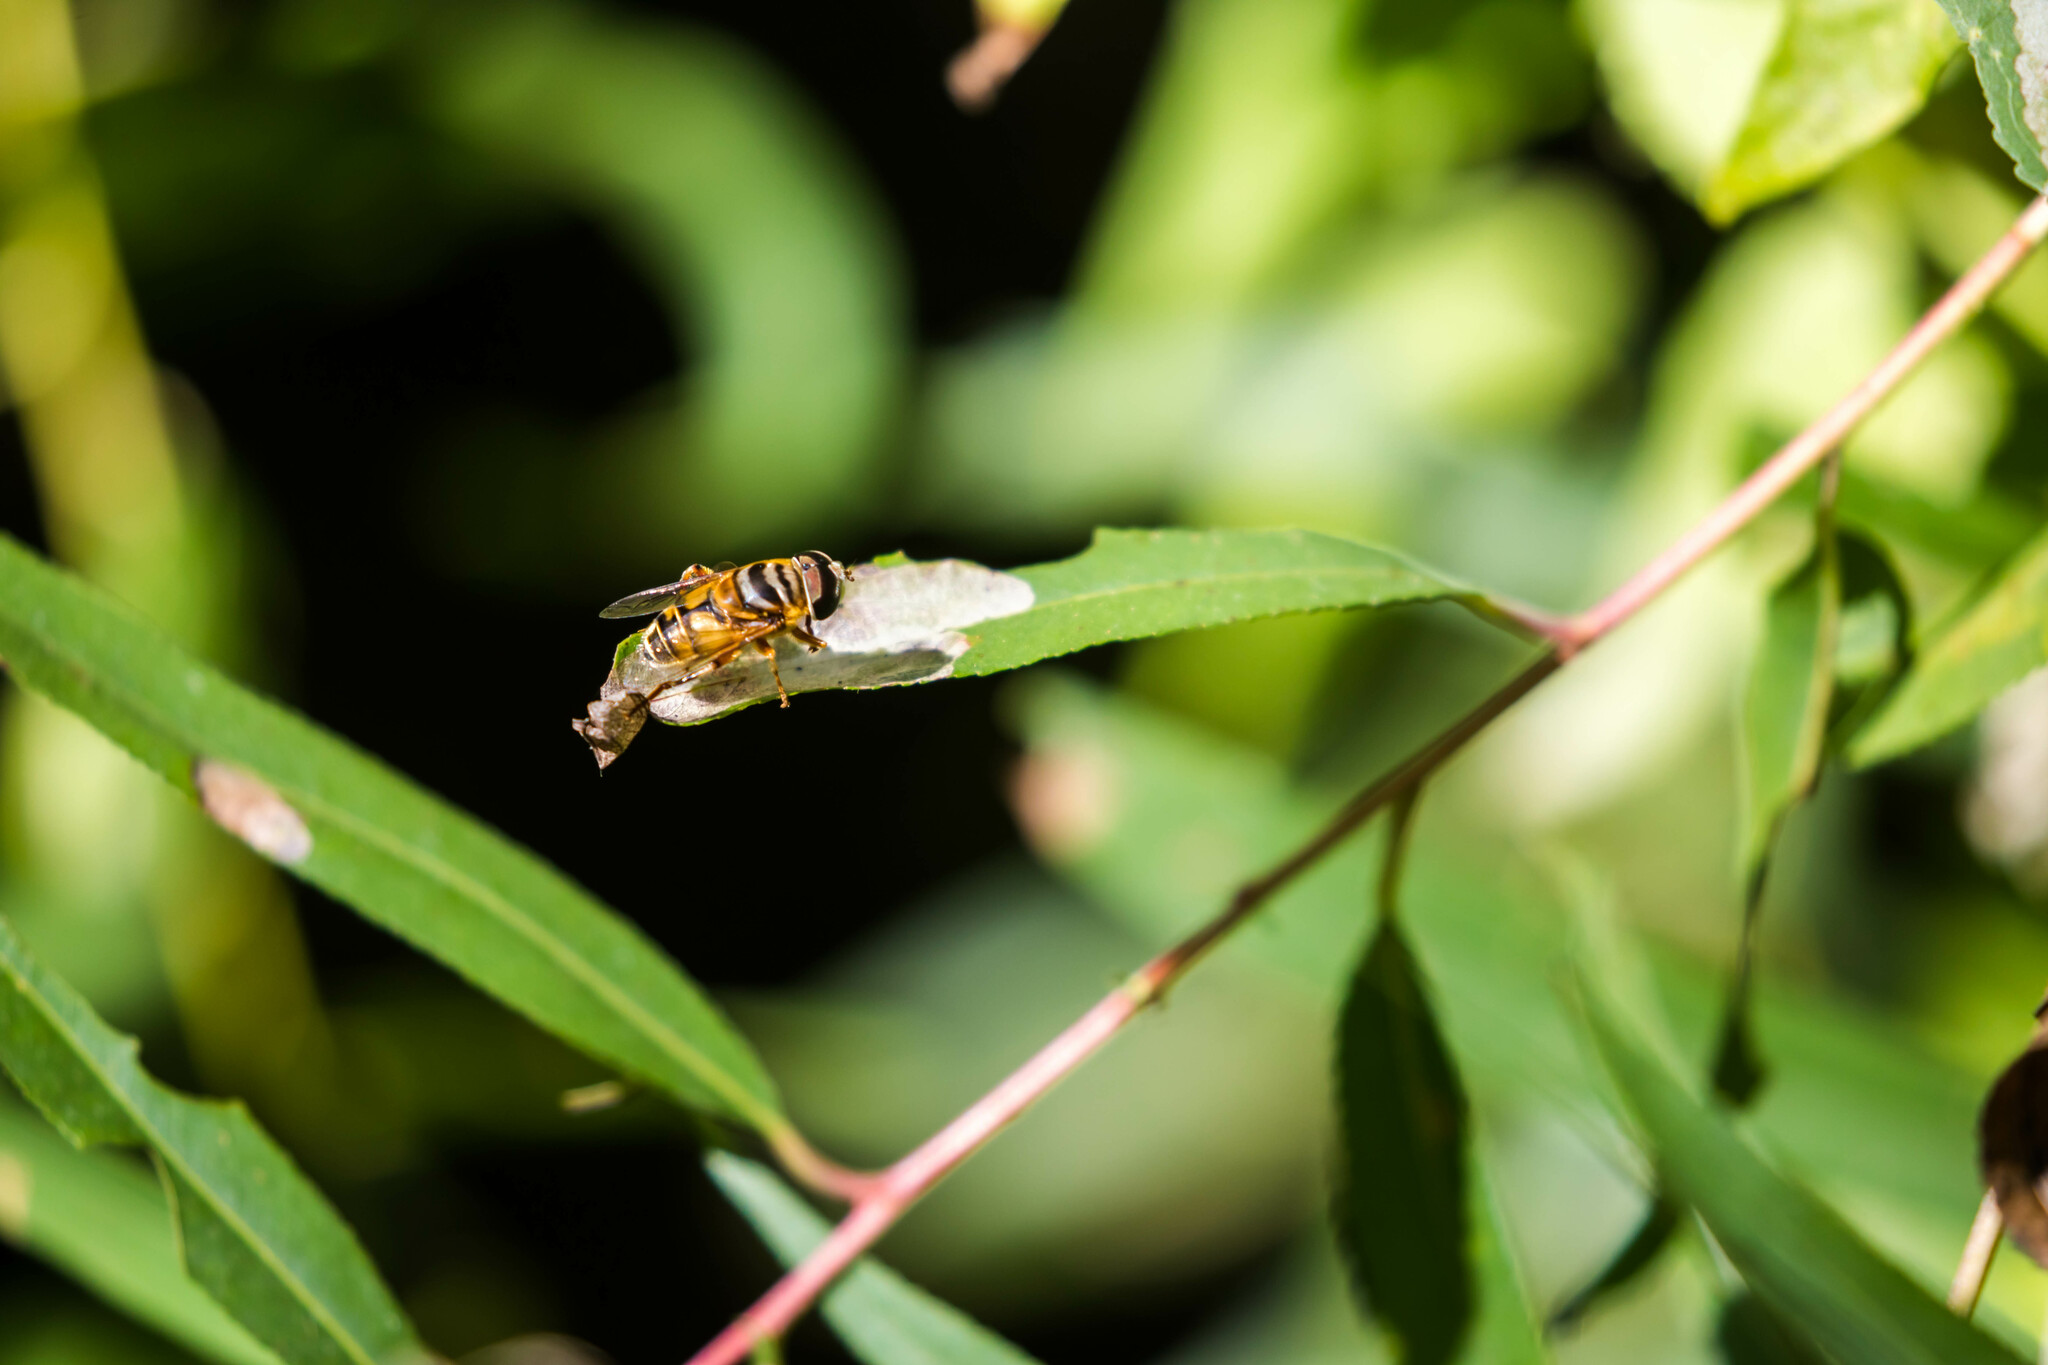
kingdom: Animalia
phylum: Arthropoda
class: Insecta
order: Diptera
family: Syrphidae
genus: Palpada
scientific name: Palpada vinetorum
